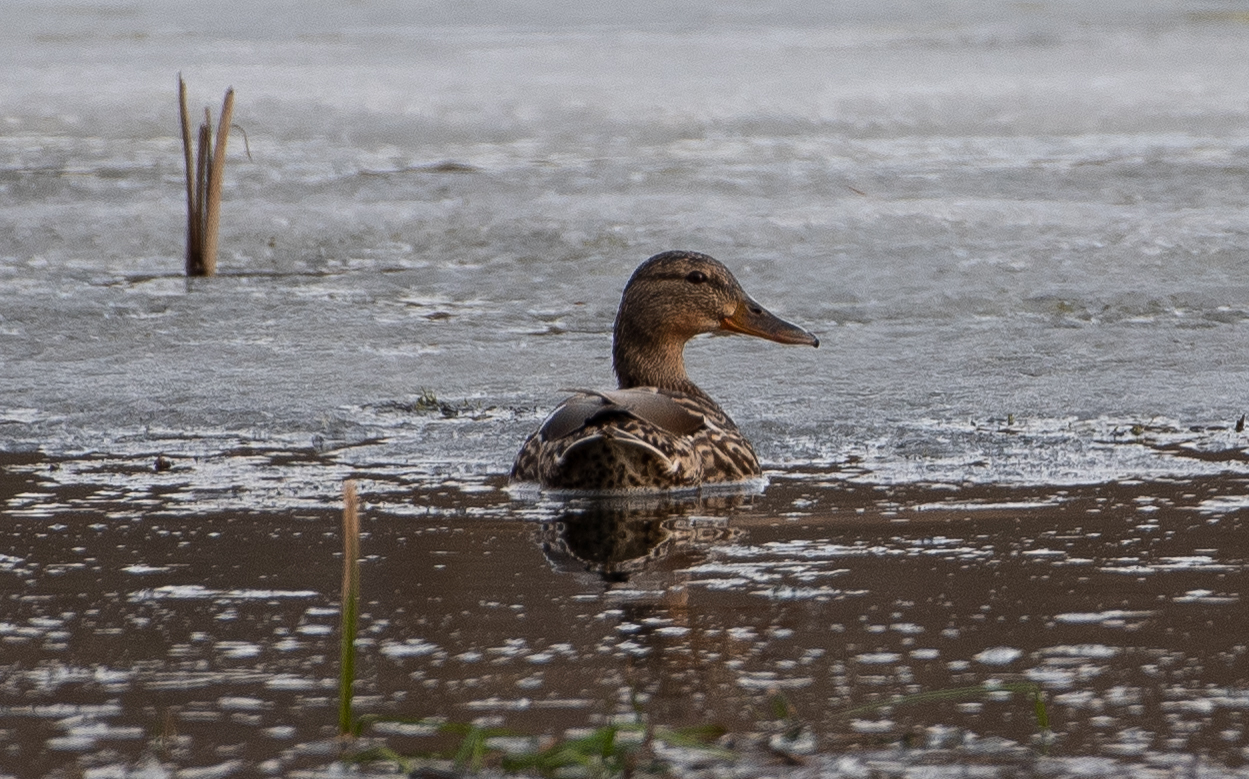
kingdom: Animalia
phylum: Chordata
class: Aves
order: Anseriformes
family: Anatidae
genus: Anas
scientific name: Anas platyrhynchos
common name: Mallard
